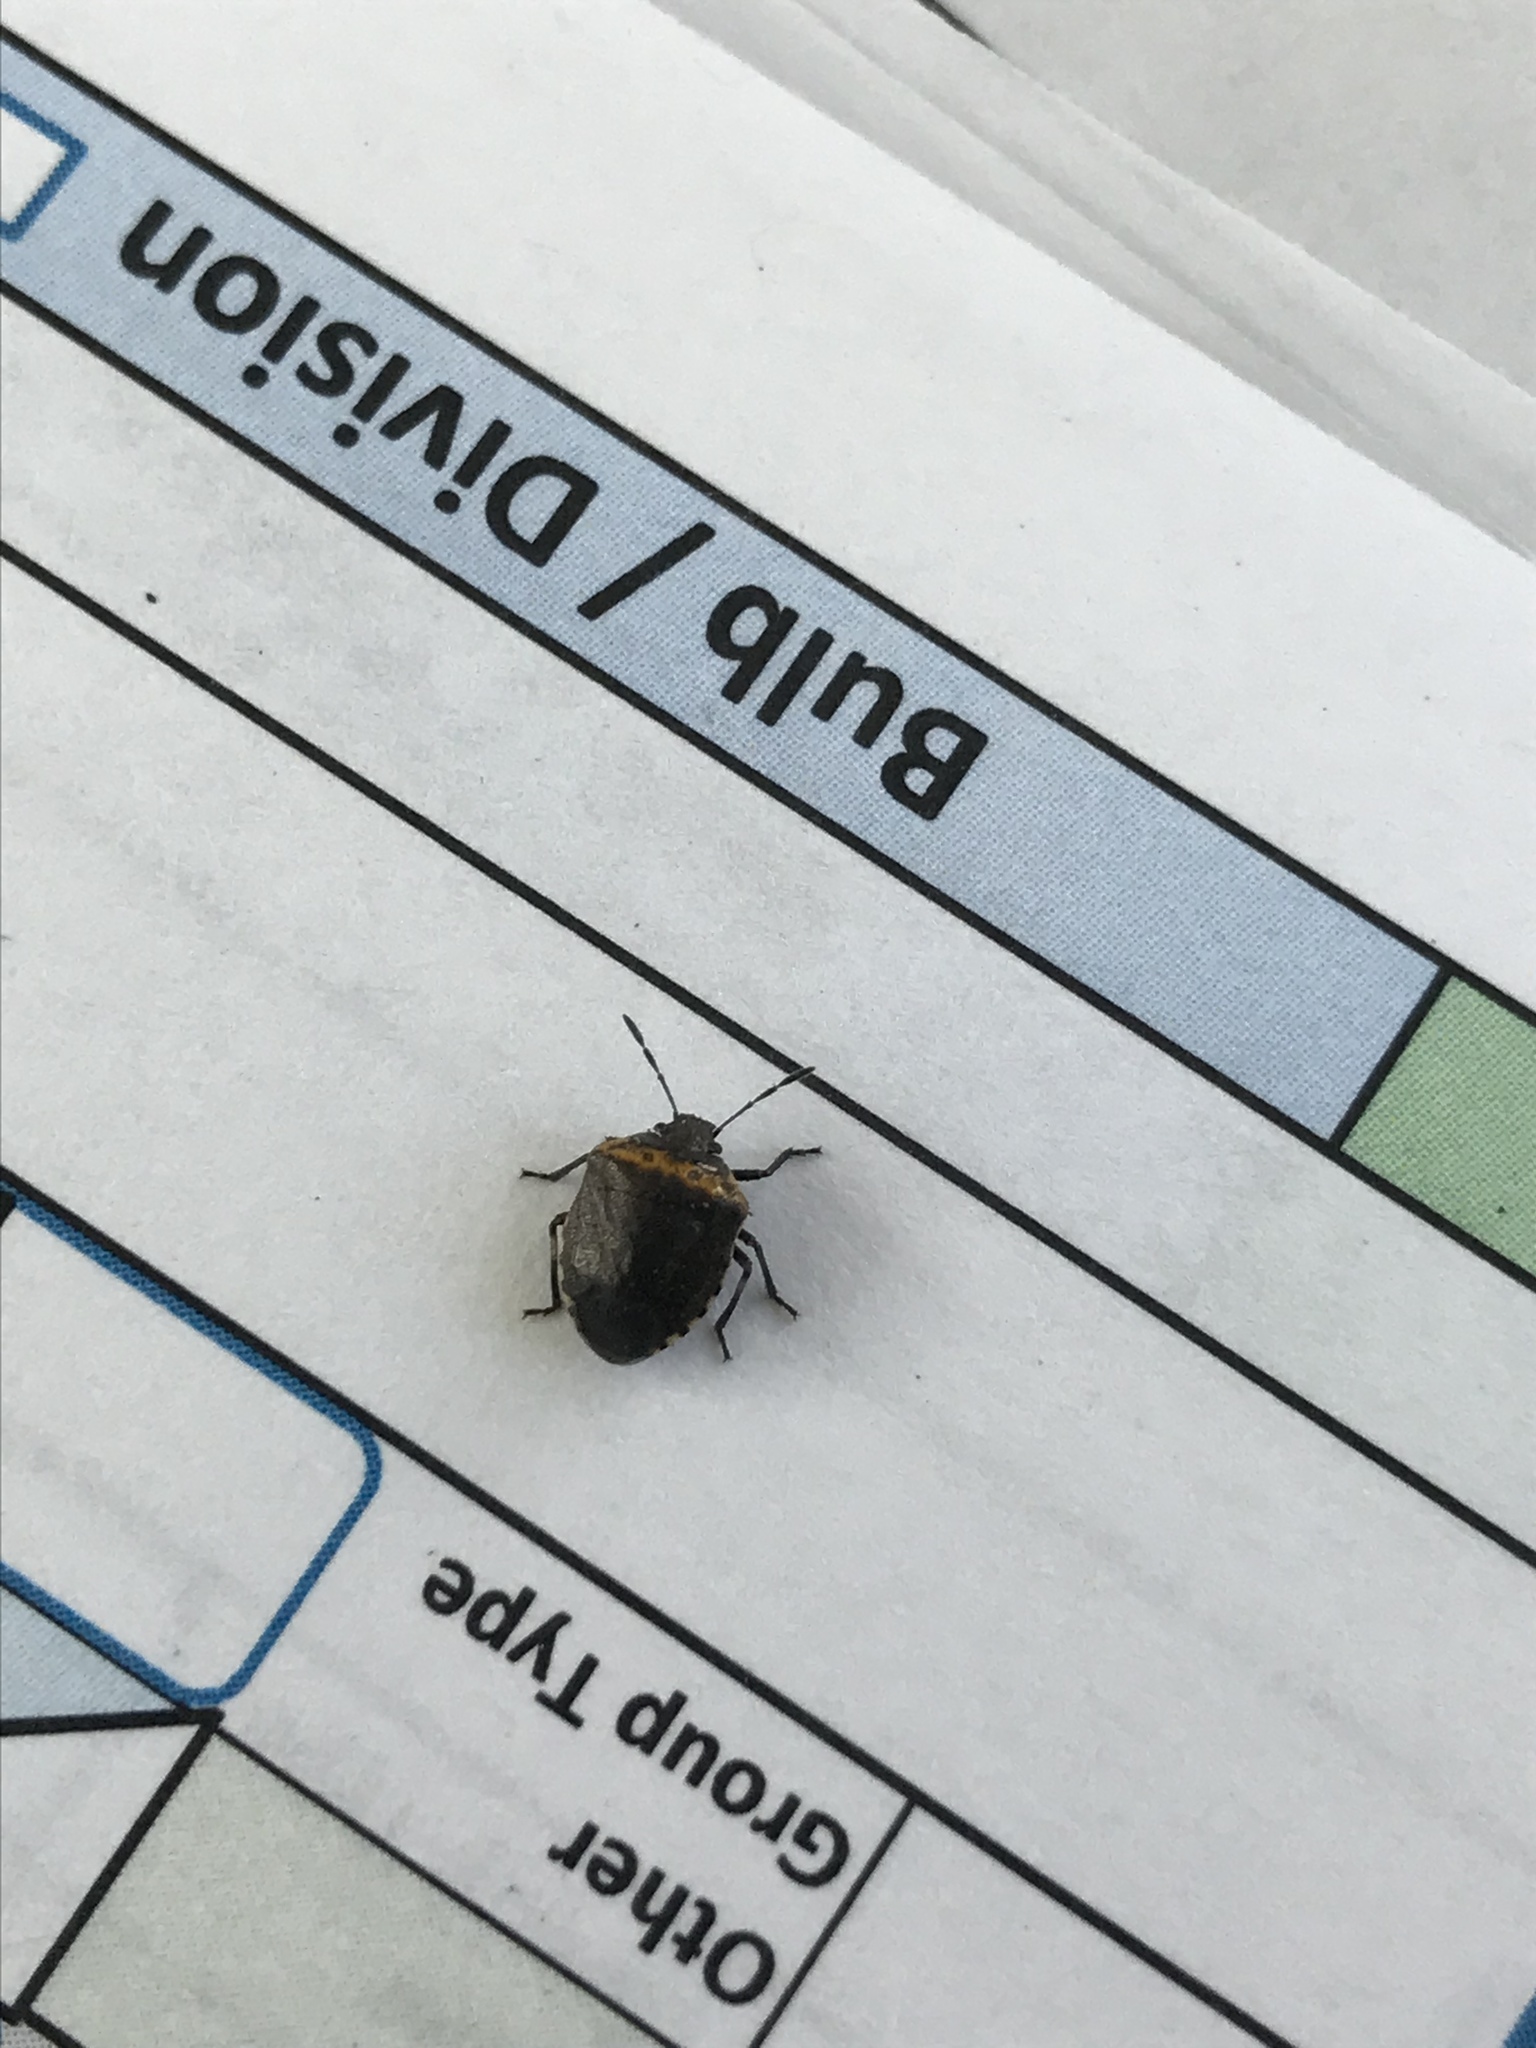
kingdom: Animalia
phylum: Arthropoda
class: Insecta
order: Hemiptera
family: Pentatomidae
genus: Cosmopepla
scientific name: Cosmopepla uhleri
